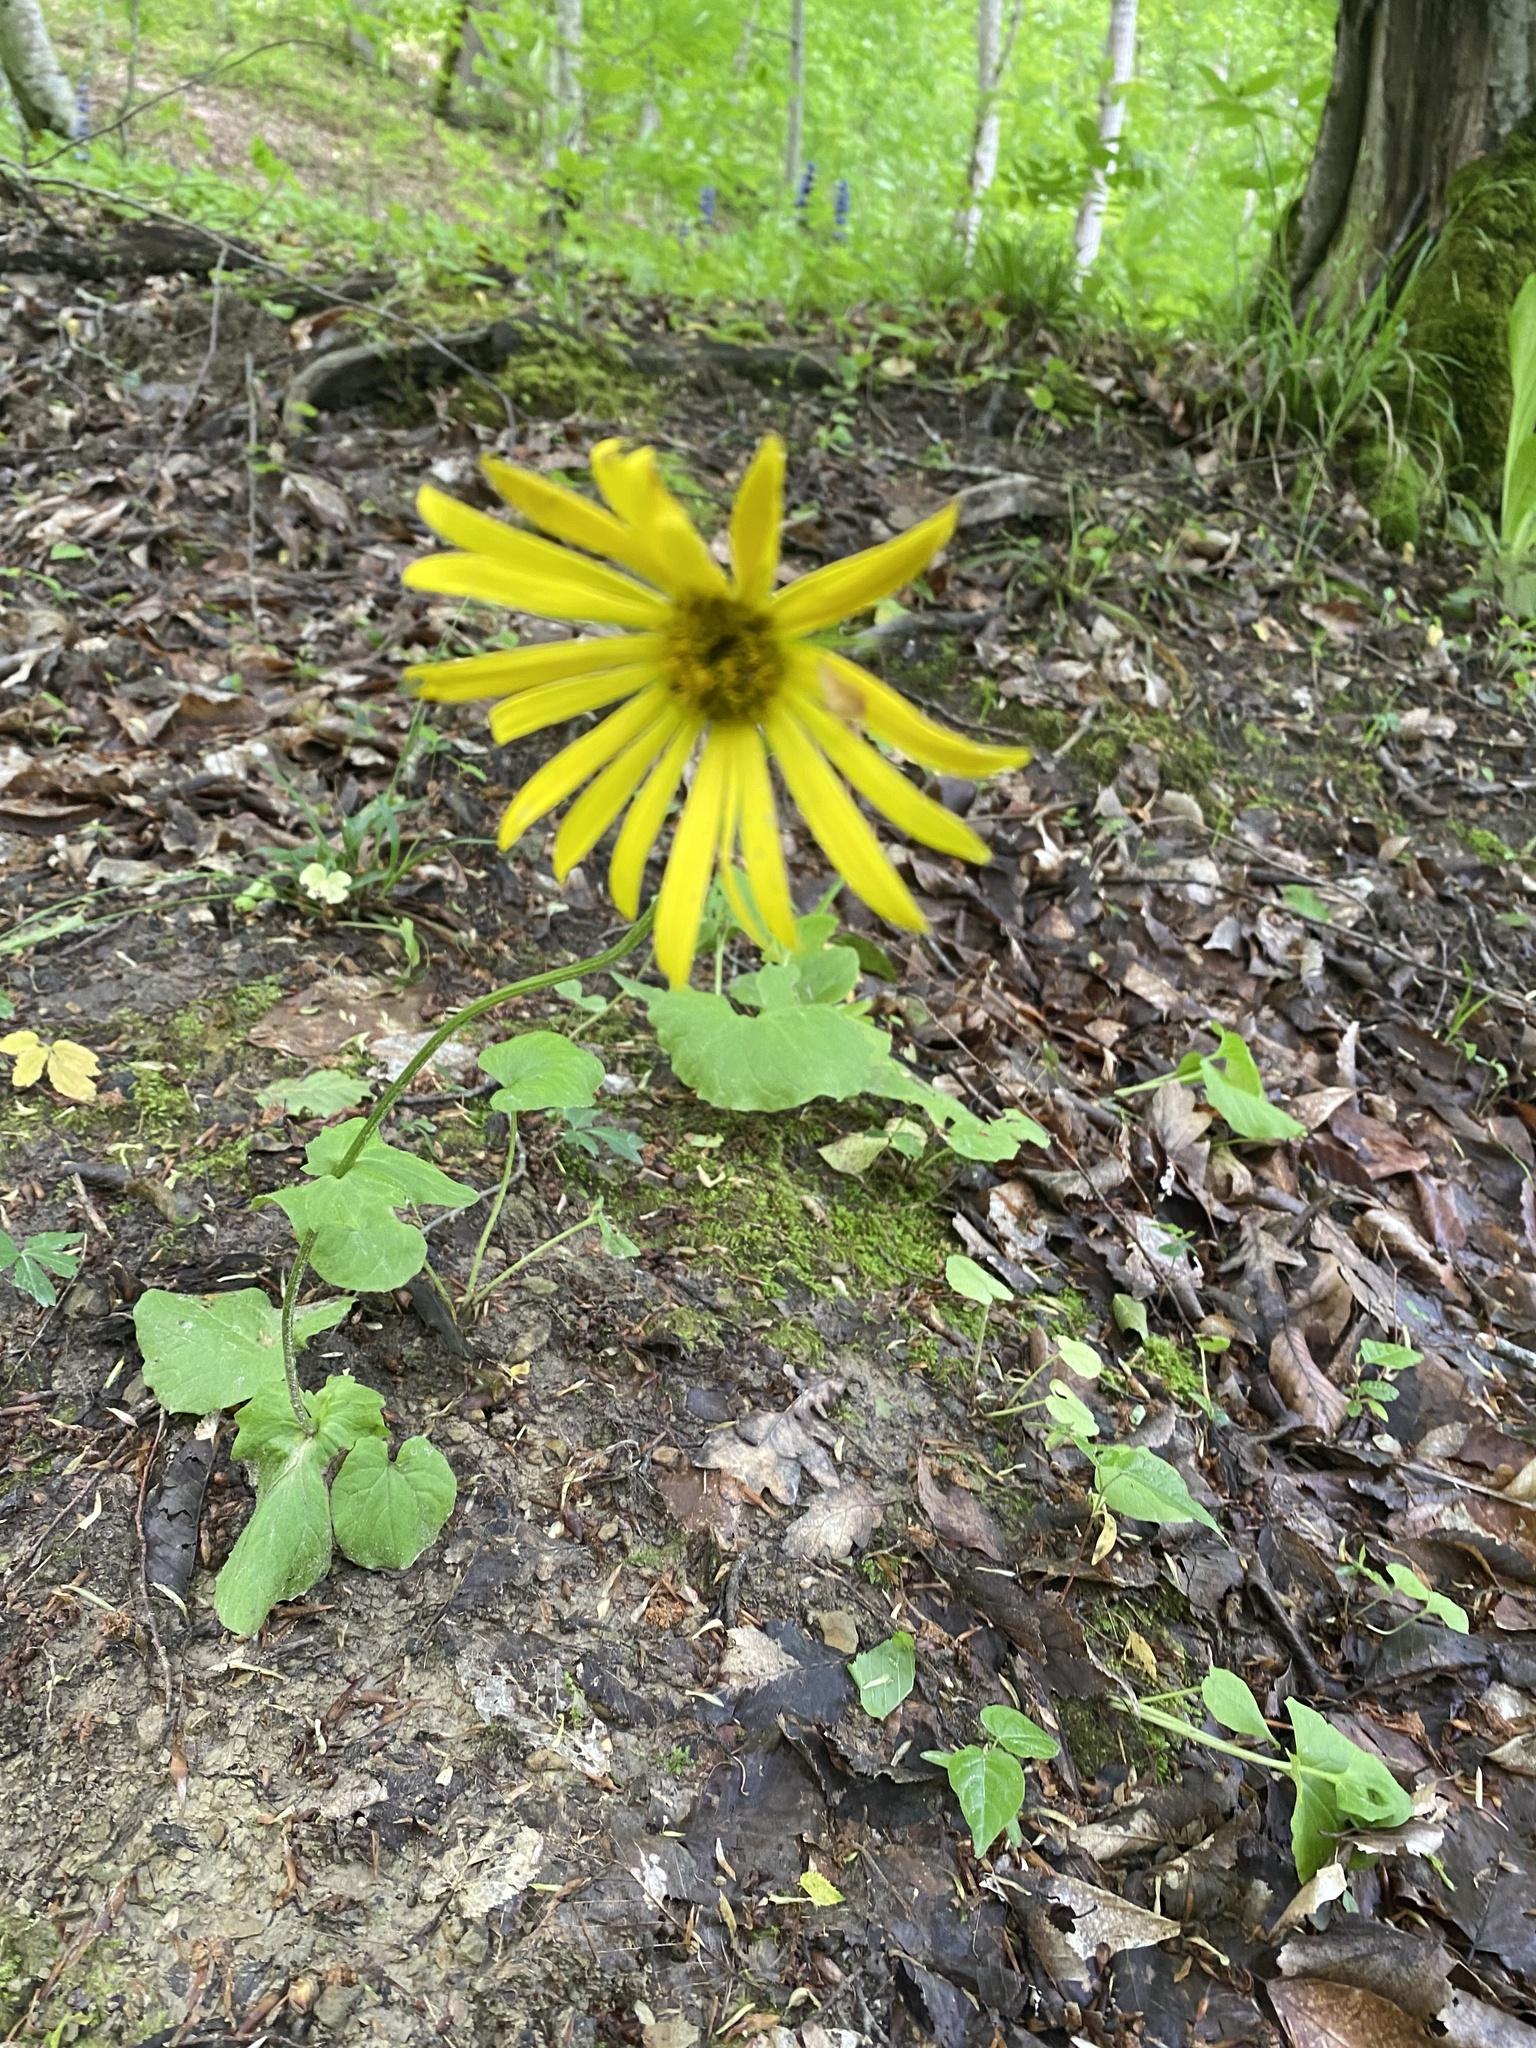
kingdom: Plantae
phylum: Tracheophyta
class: Magnoliopsida
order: Asterales
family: Asteraceae
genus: Doronicum
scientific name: Doronicum
